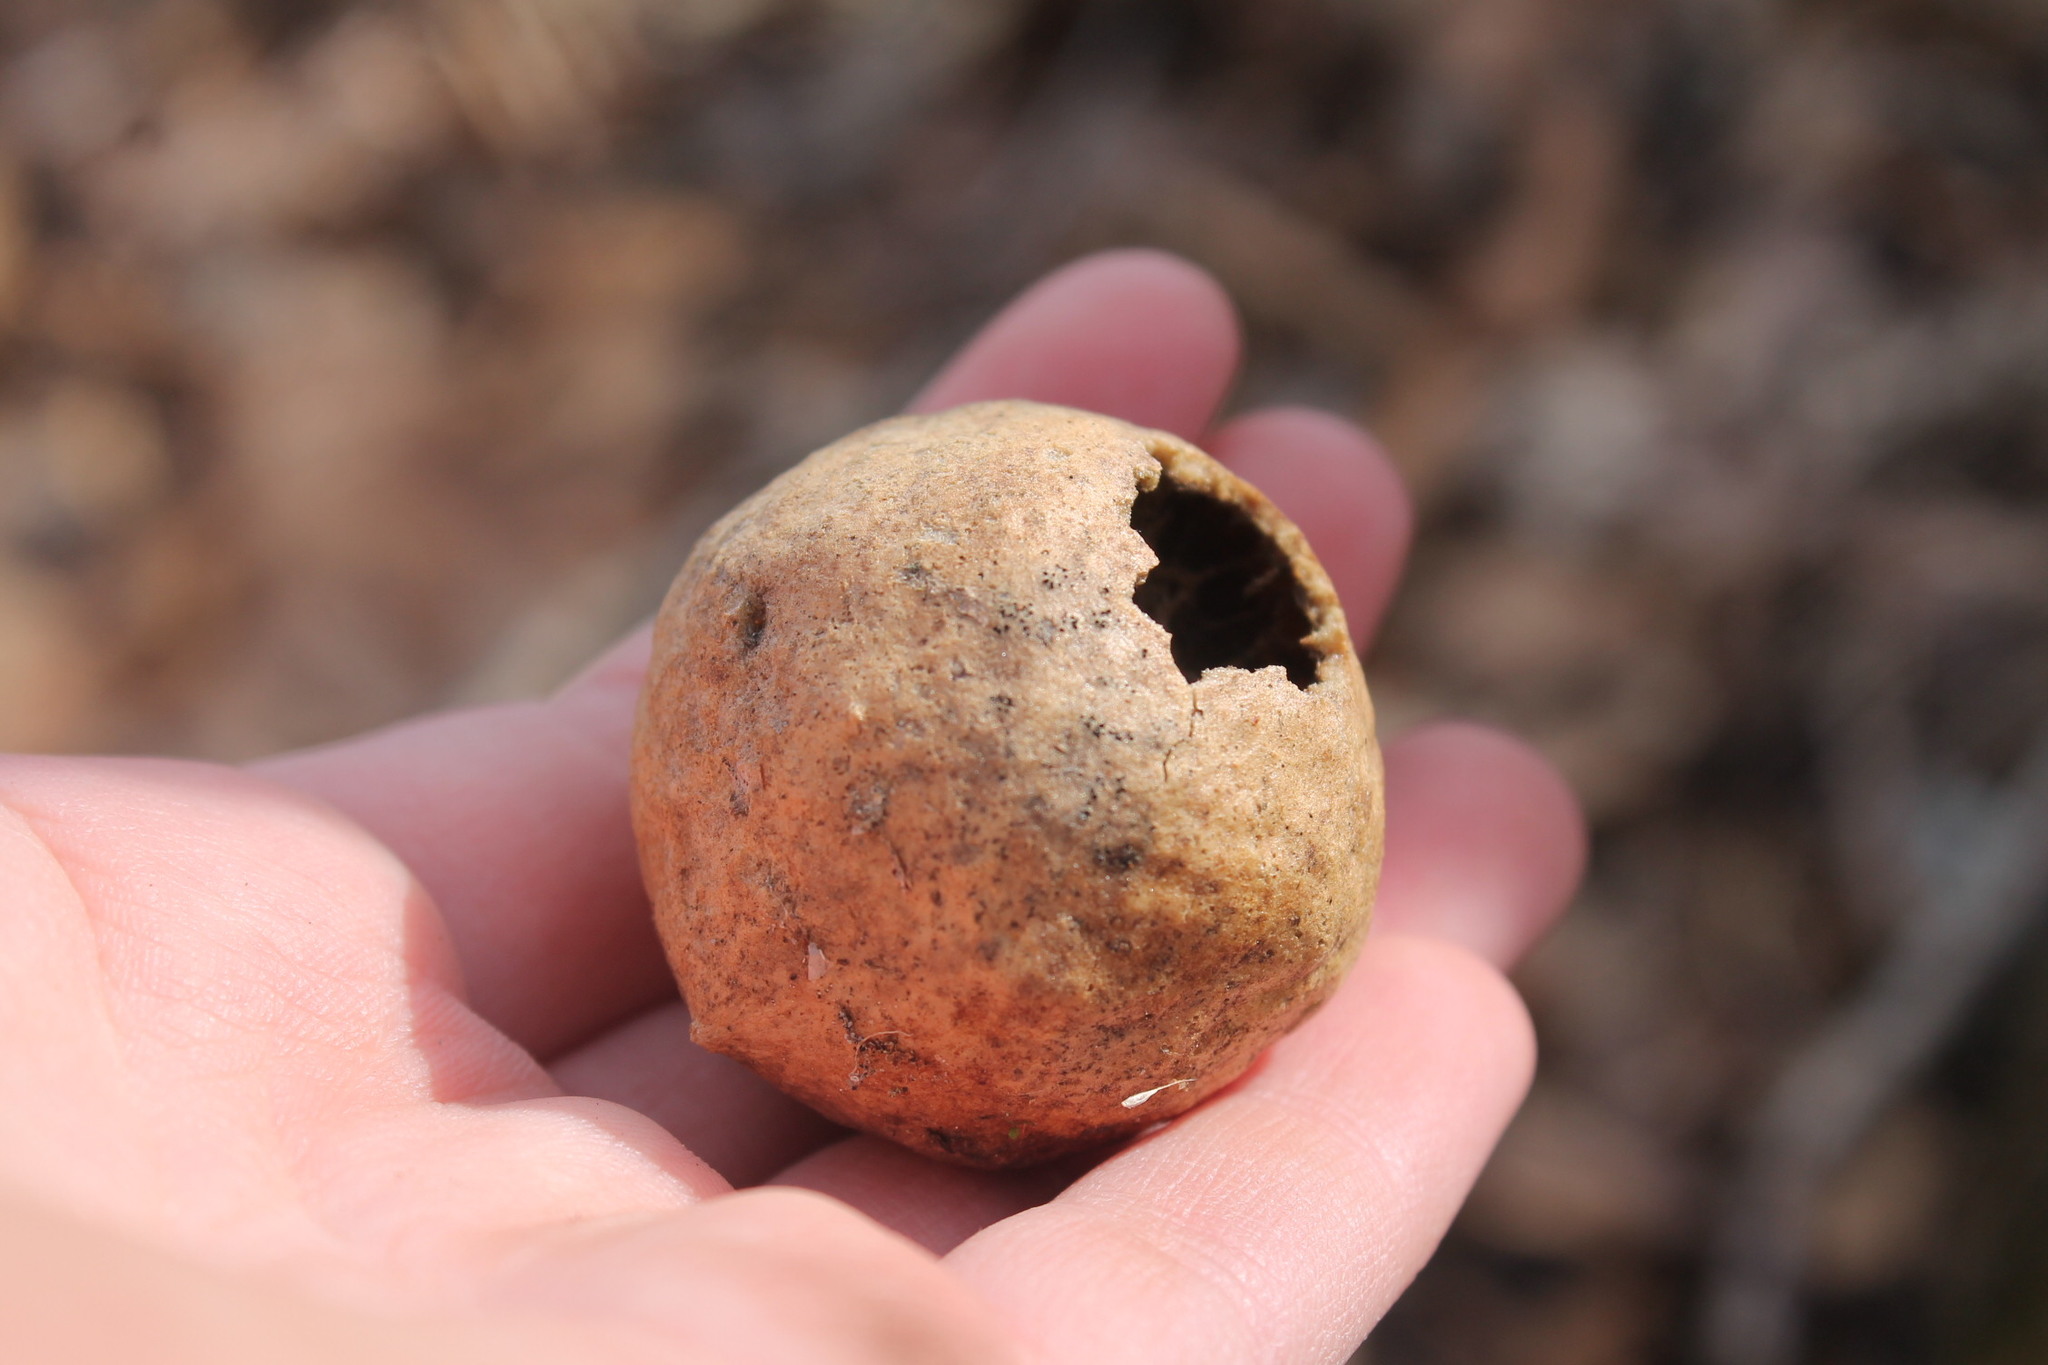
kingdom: Animalia
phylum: Arthropoda
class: Insecta
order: Hymenoptera
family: Cynipidae
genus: Amphibolips
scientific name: Amphibolips
